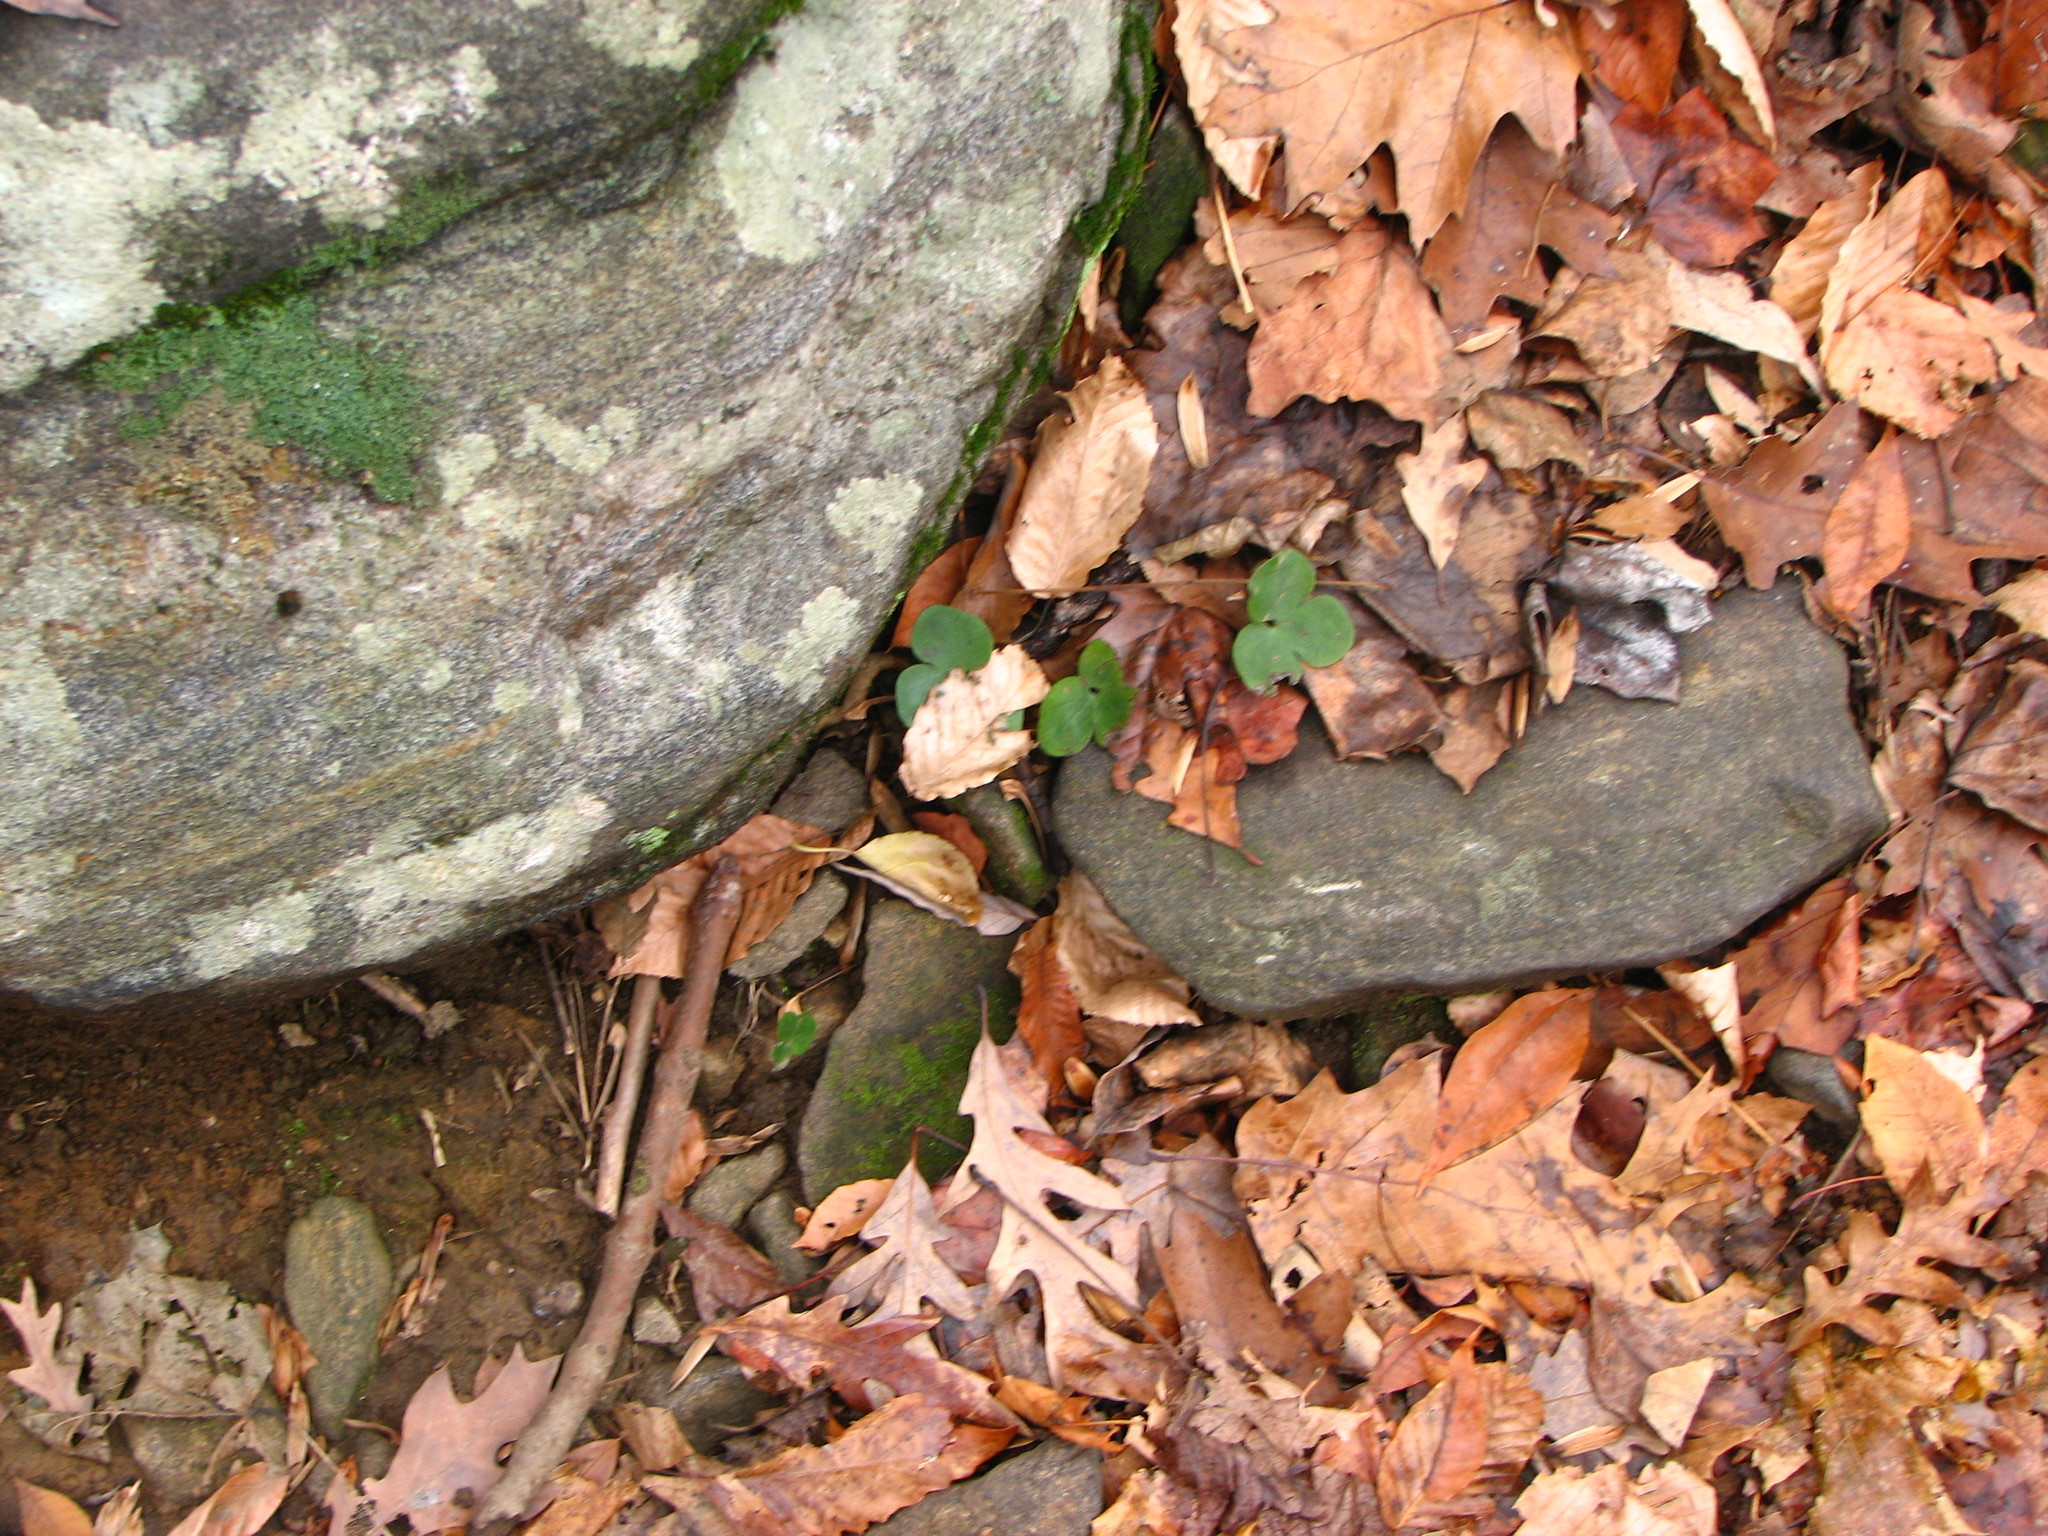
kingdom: Plantae
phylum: Tracheophyta
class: Magnoliopsida
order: Ranunculales
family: Ranunculaceae
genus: Hepatica
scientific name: Hepatica americana
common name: American hepatica
